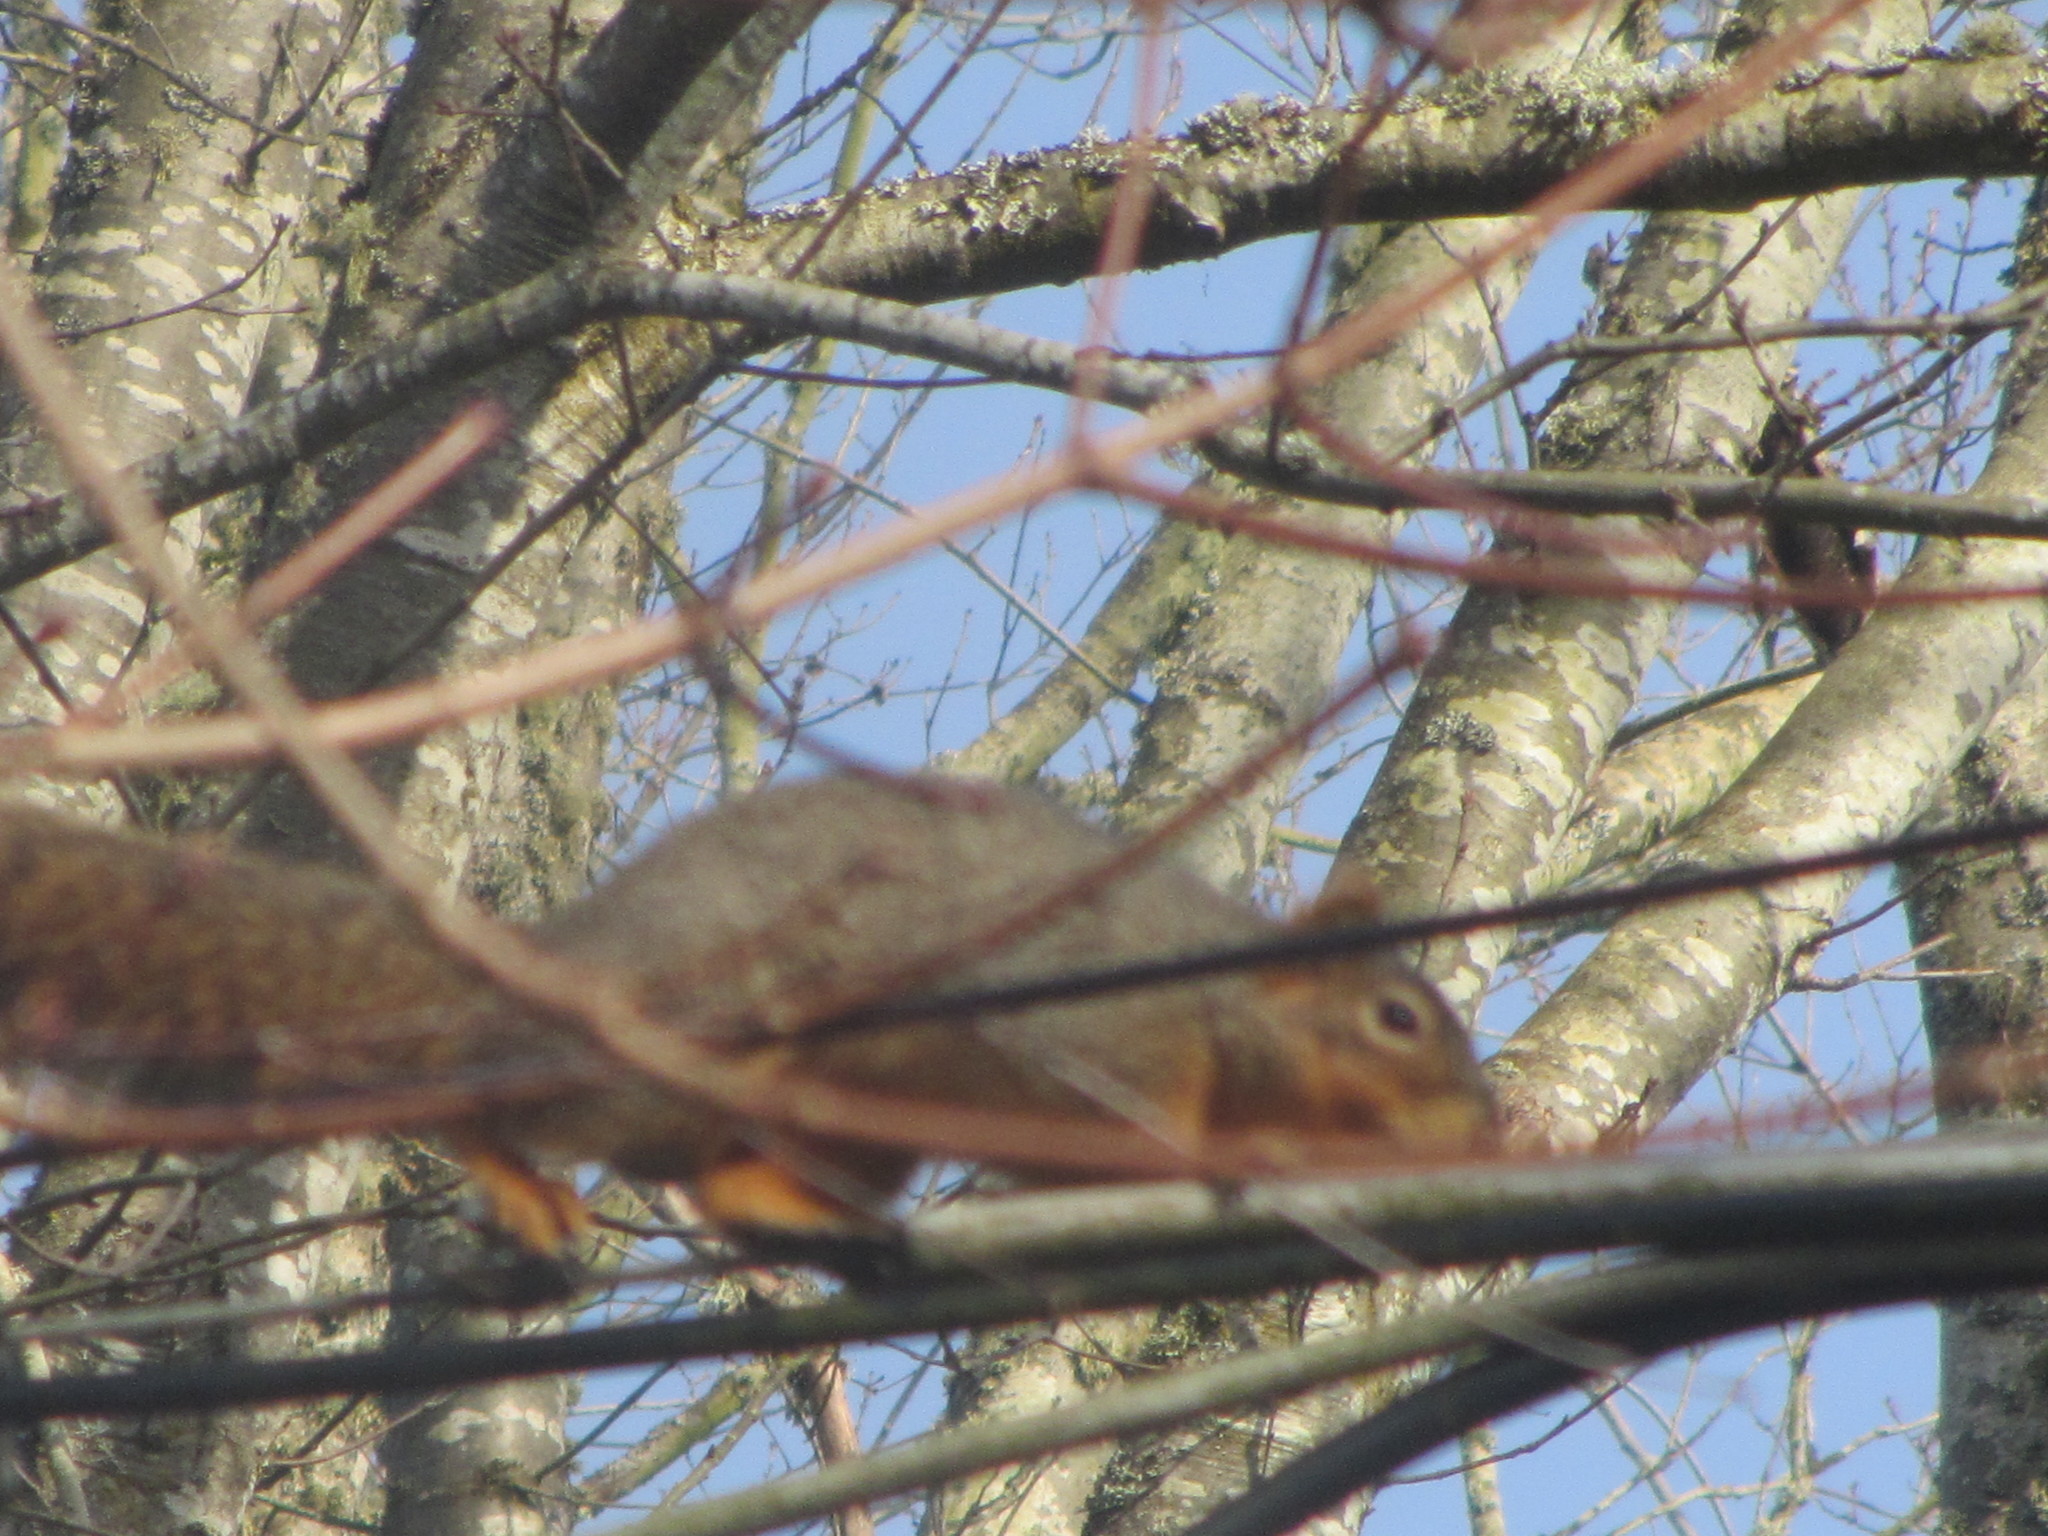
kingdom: Animalia
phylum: Chordata
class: Mammalia
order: Rodentia
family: Sciuridae
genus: Sciurus
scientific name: Sciurus niger
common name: Fox squirrel
